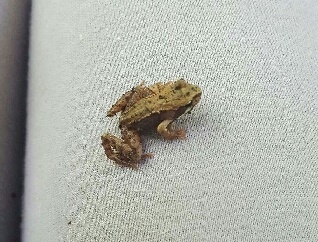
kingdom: Animalia
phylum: Chordata
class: Amphibia
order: Anura
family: Ranidae
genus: Rana
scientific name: Rana temporaria
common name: Common frog
